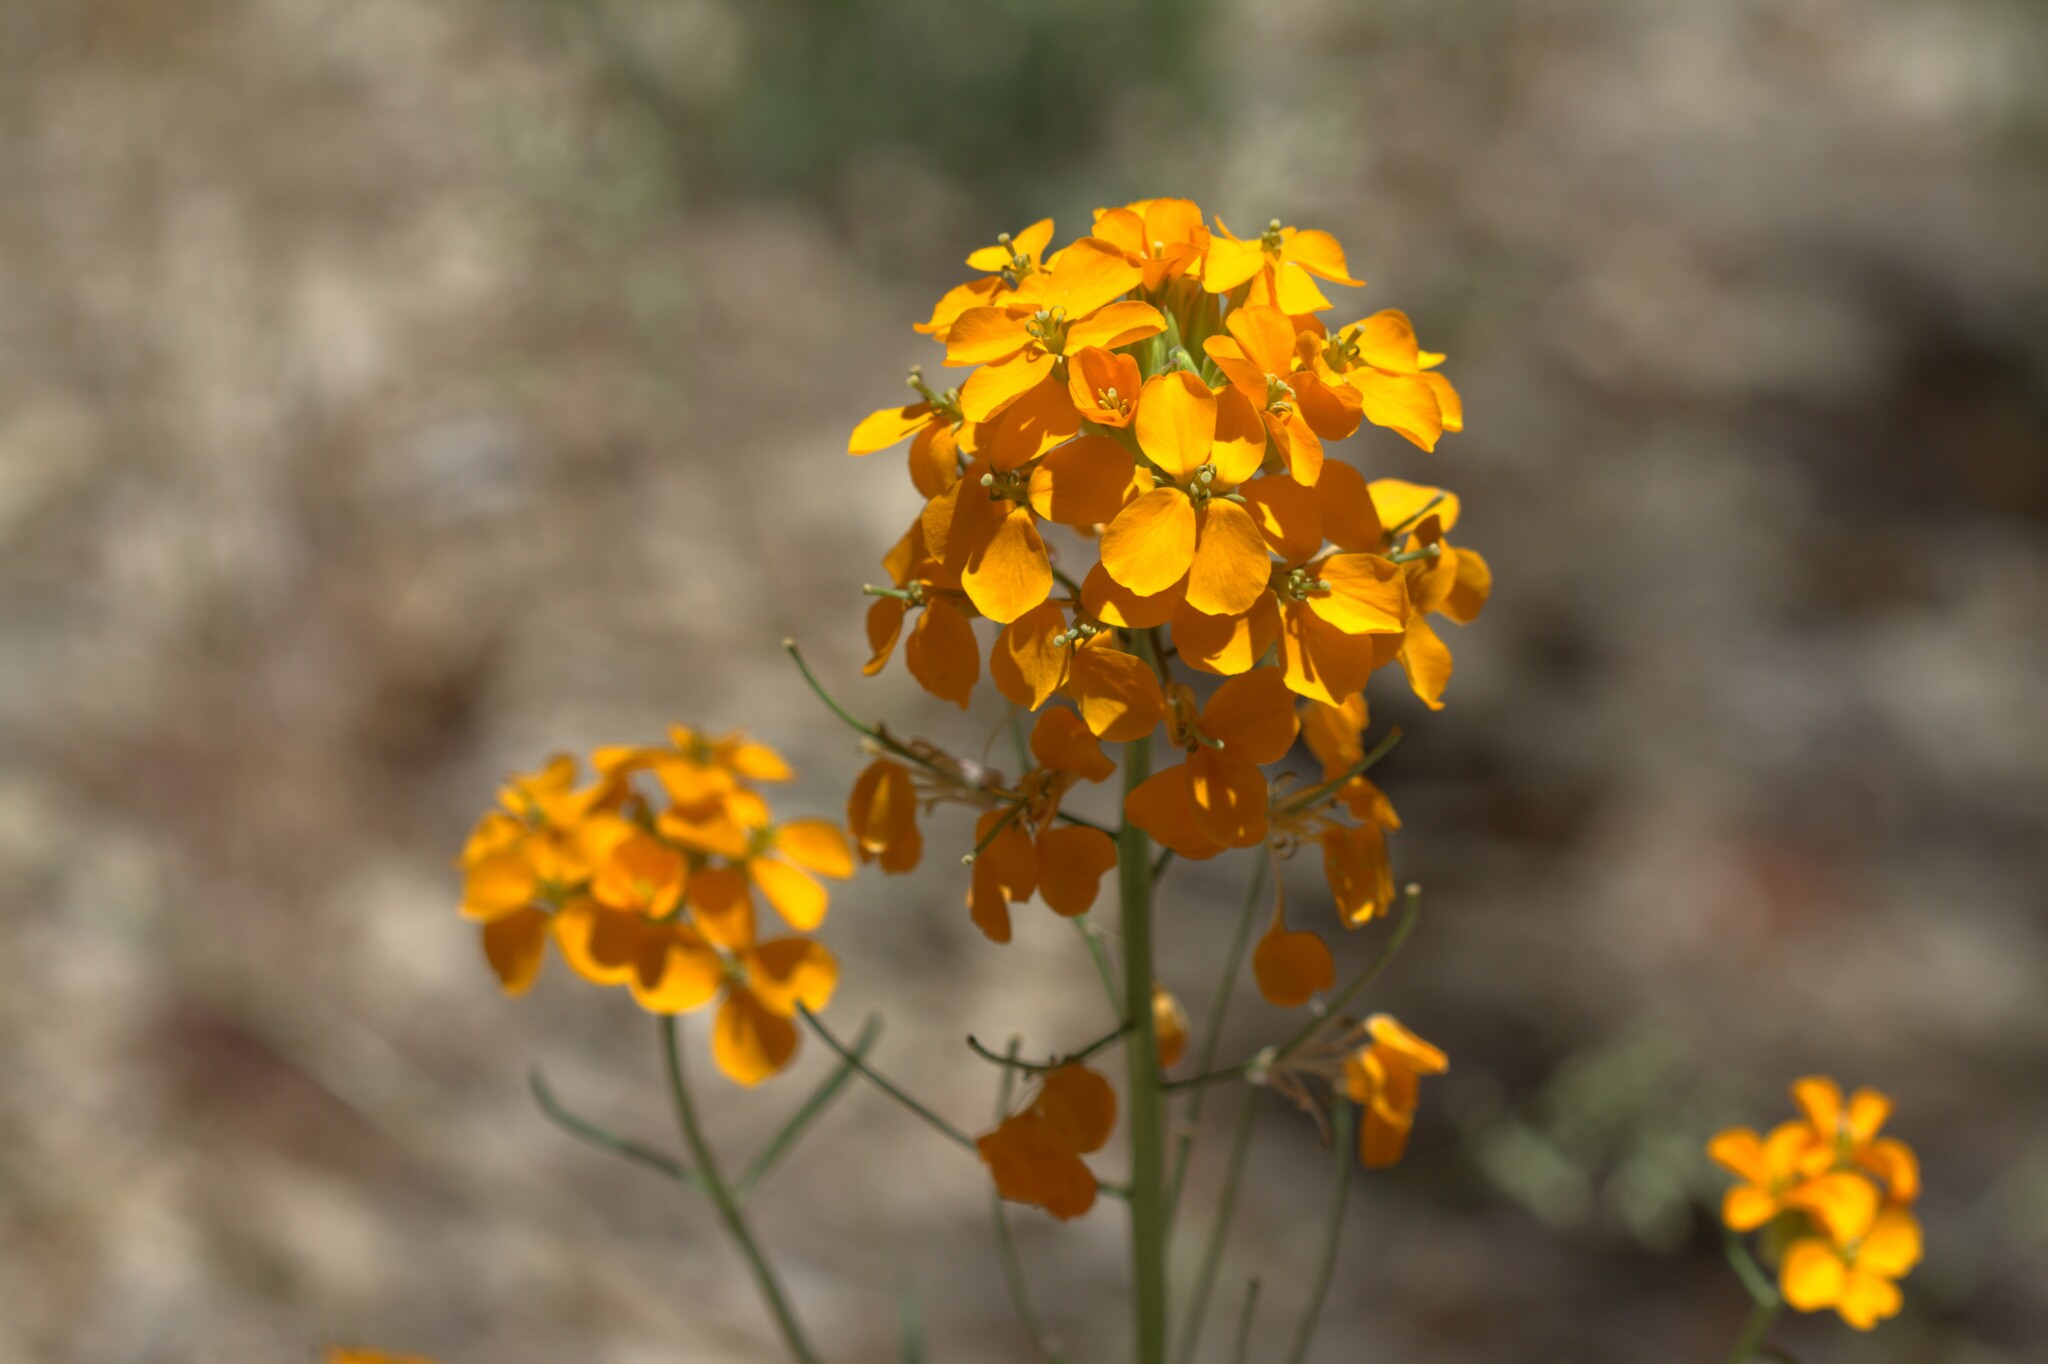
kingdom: Plantae
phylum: Tracheophyta
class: Magnoliopsida
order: Brassicales
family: Brassicaceae
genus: Erysimum
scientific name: Erysimum capitatum
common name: Western wallflower
